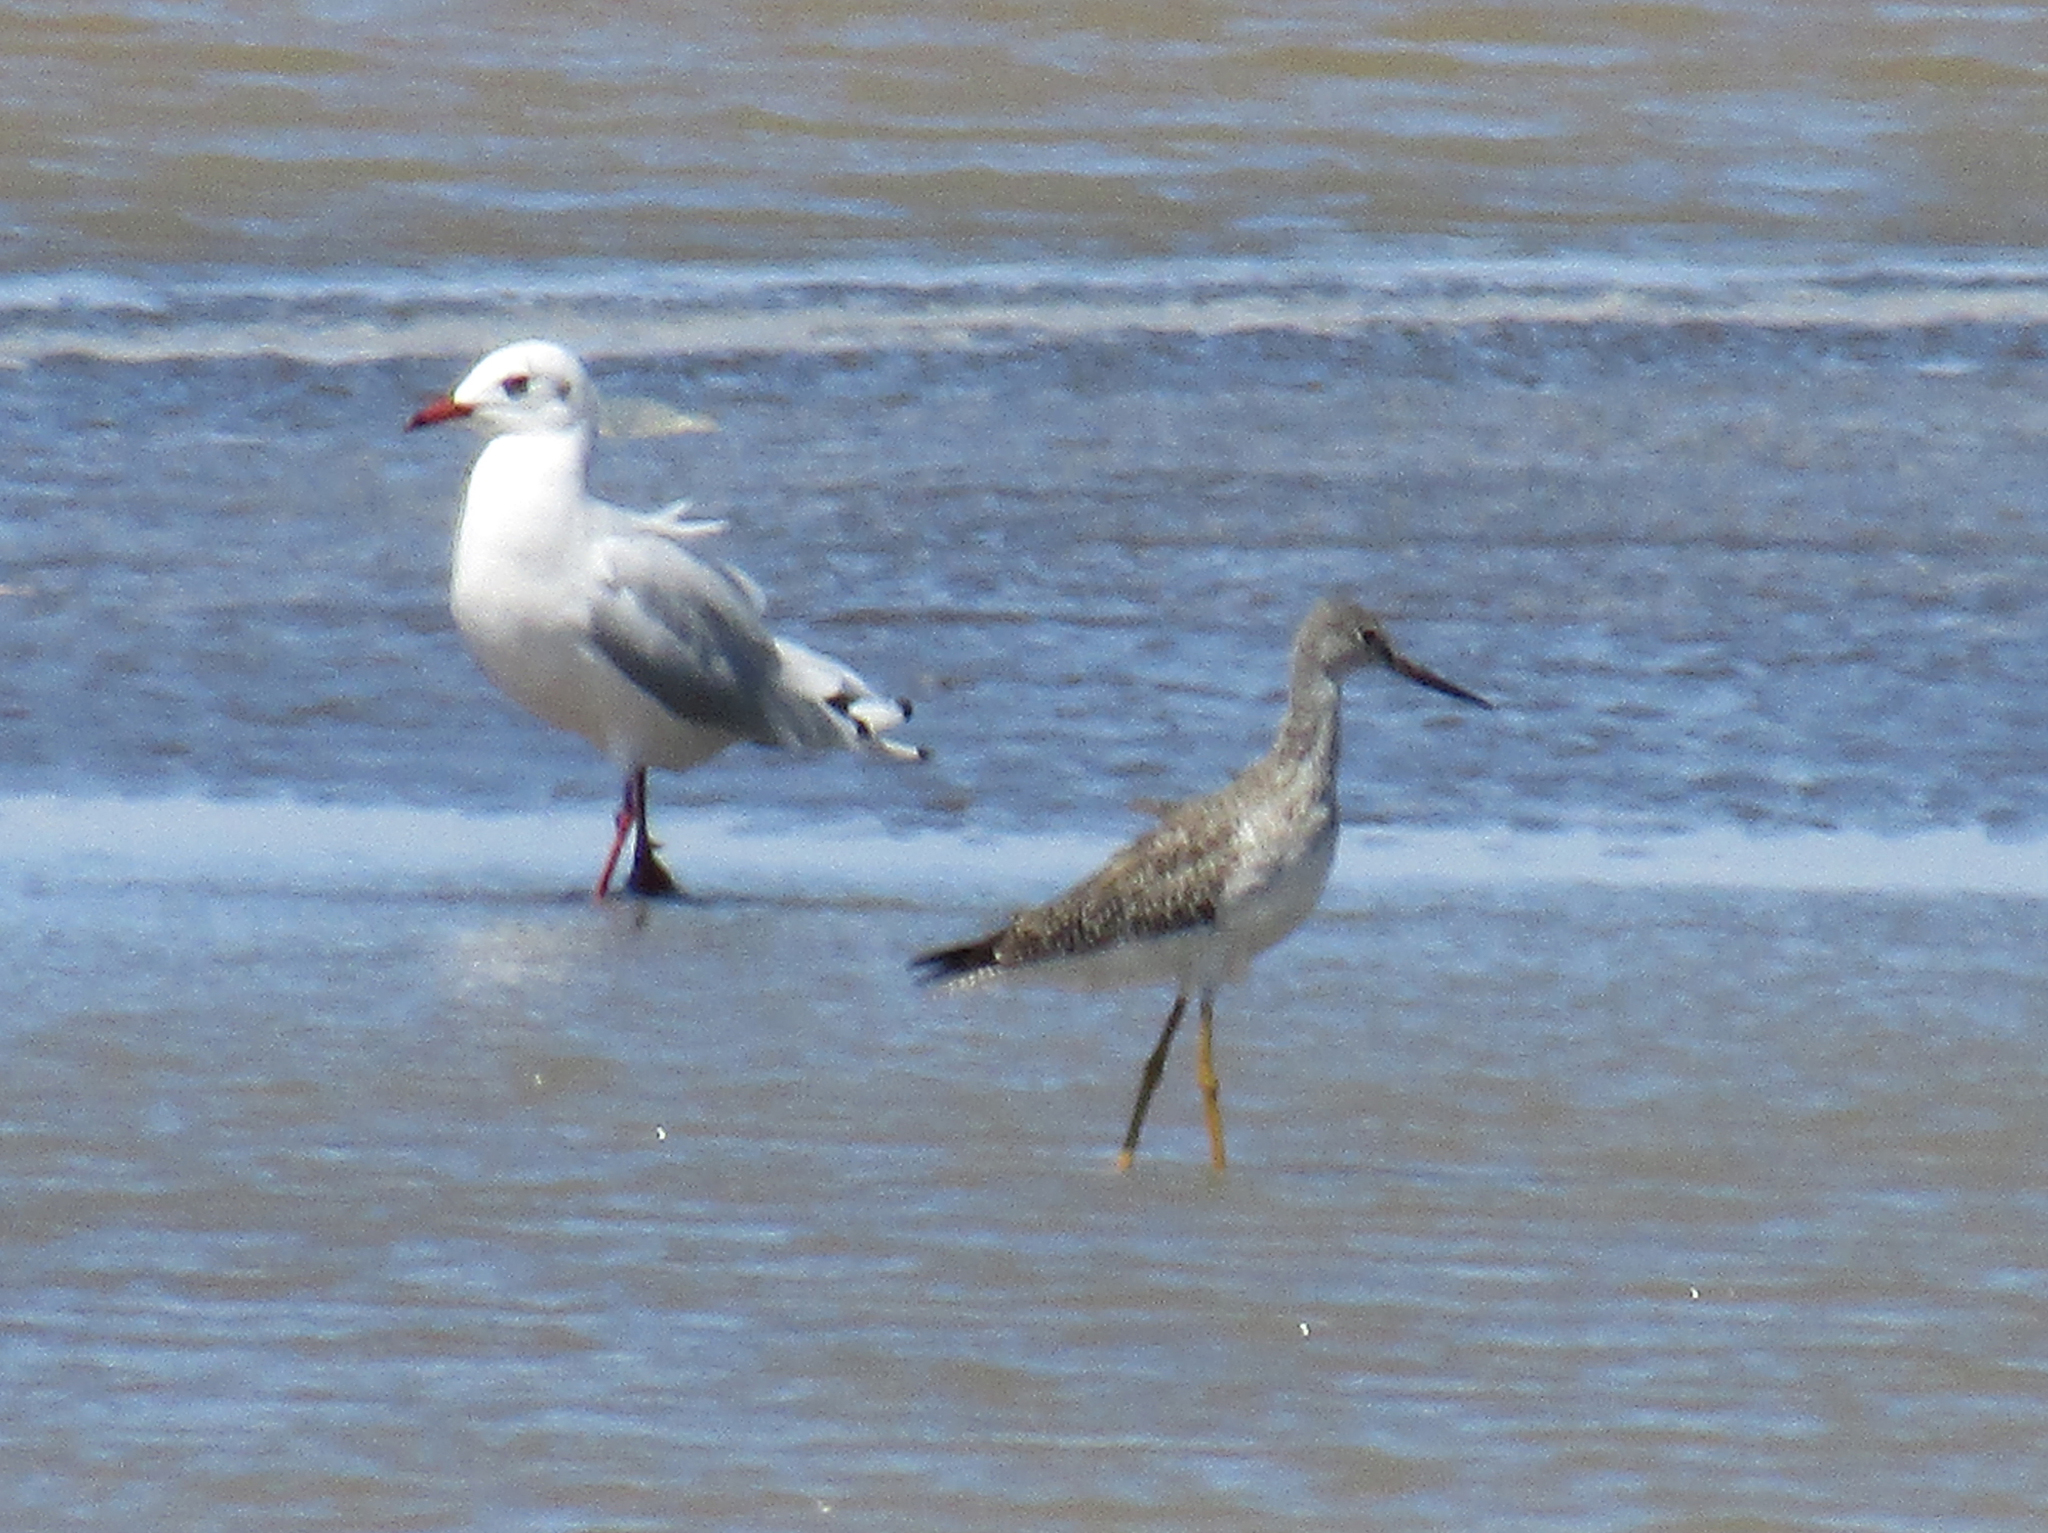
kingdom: Animalia
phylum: Chordata
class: Aves
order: Charadriiformes
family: Laridae
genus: Chroicocephalus
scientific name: Chroicocephalus maculipennis
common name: Brown-hooded gull
